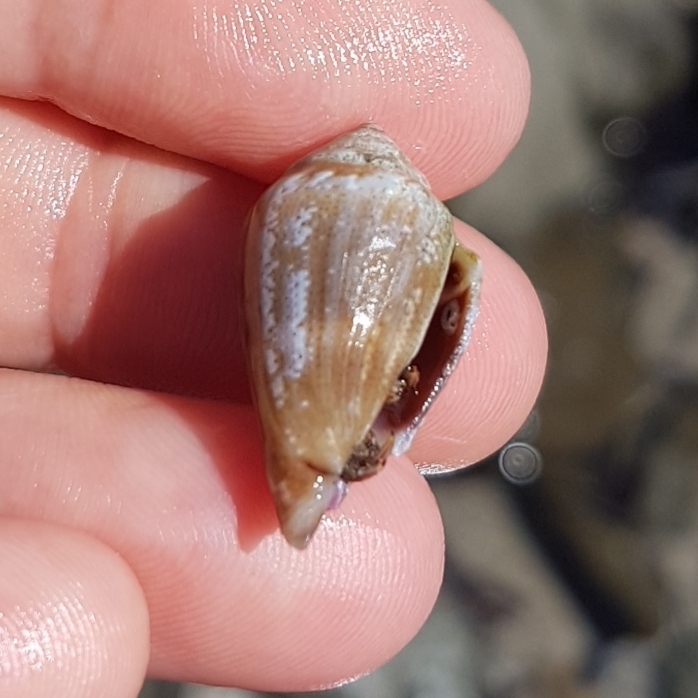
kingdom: Animalia
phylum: Mollusca
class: Gastropoda
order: Neogastropoda
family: Conidae
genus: Conus
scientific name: Conus ventricosus
